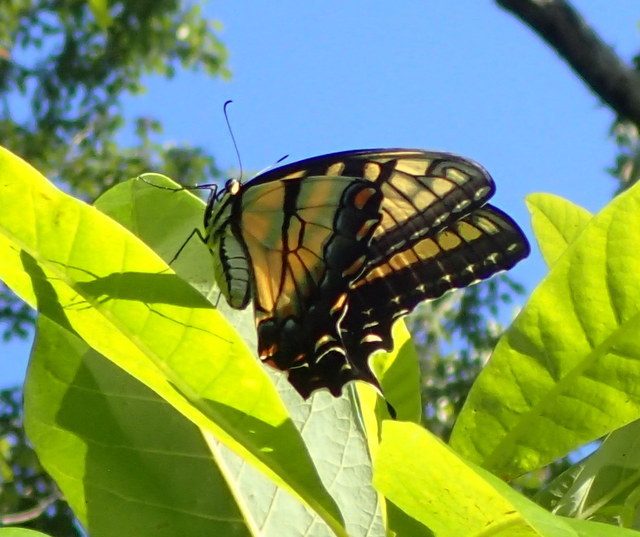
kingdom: Animalia
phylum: Arthropoda
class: Insecta
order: Lepidoptera
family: Papilionidae
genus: Papilio
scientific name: Papilio glaucus
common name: Tiger swallowtail
